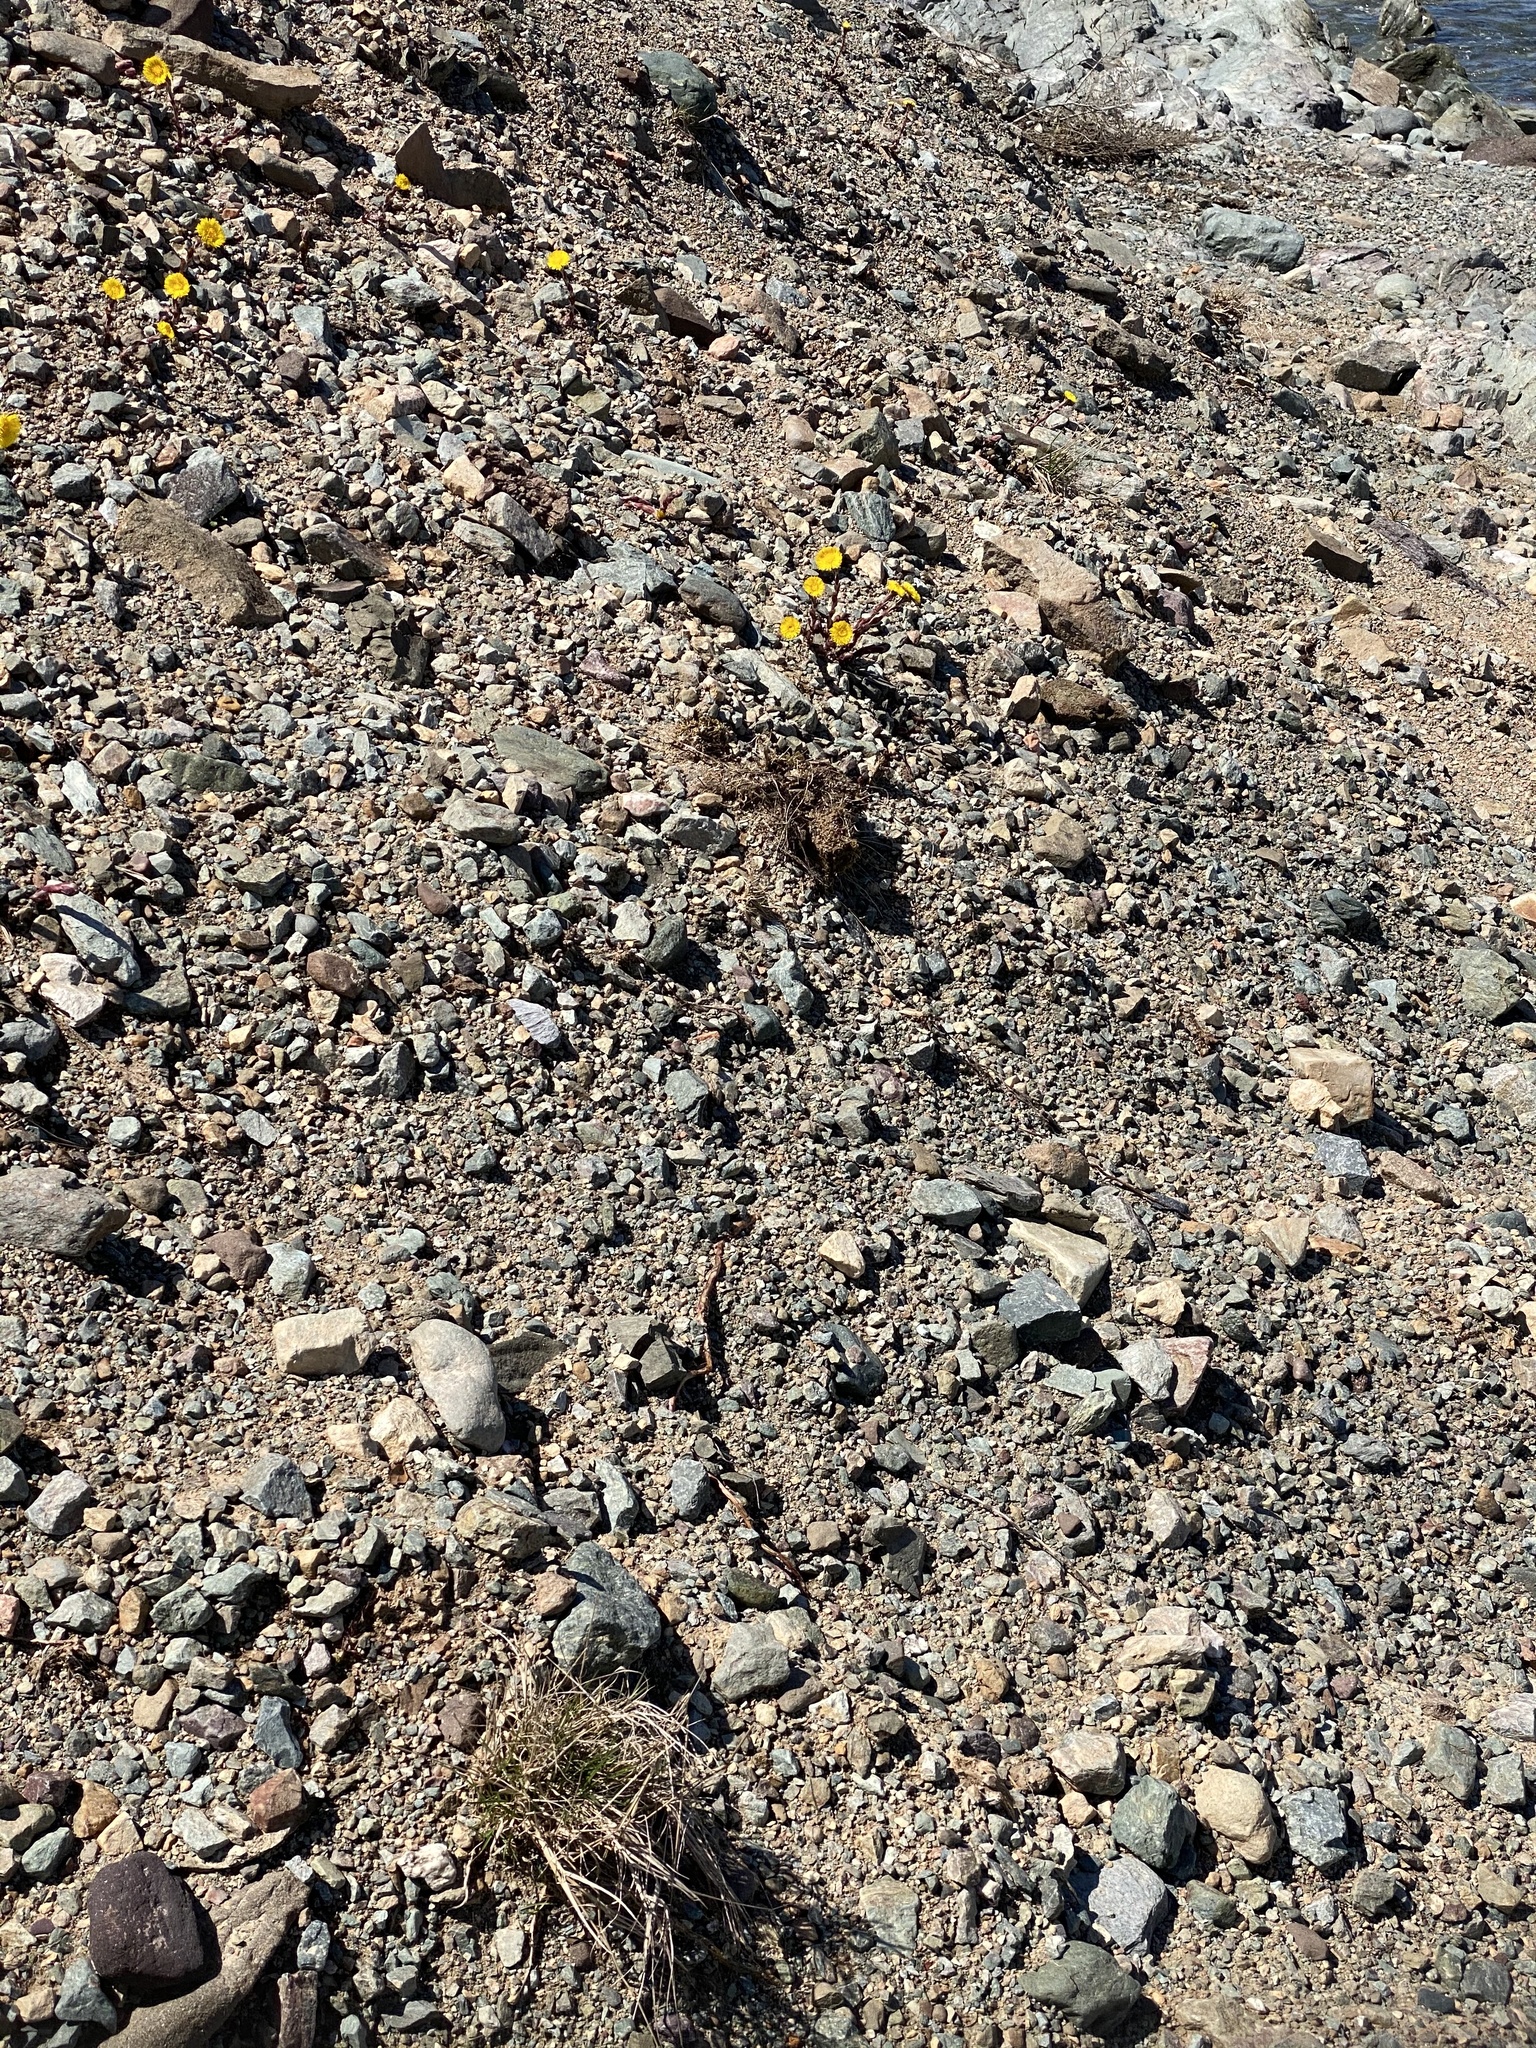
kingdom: Plantae
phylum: Tracheophyta
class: Magnoliopsida
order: Asterales
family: Asteraceae
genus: Tussilago
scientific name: Tussilago farfara
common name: Coltsfoot
